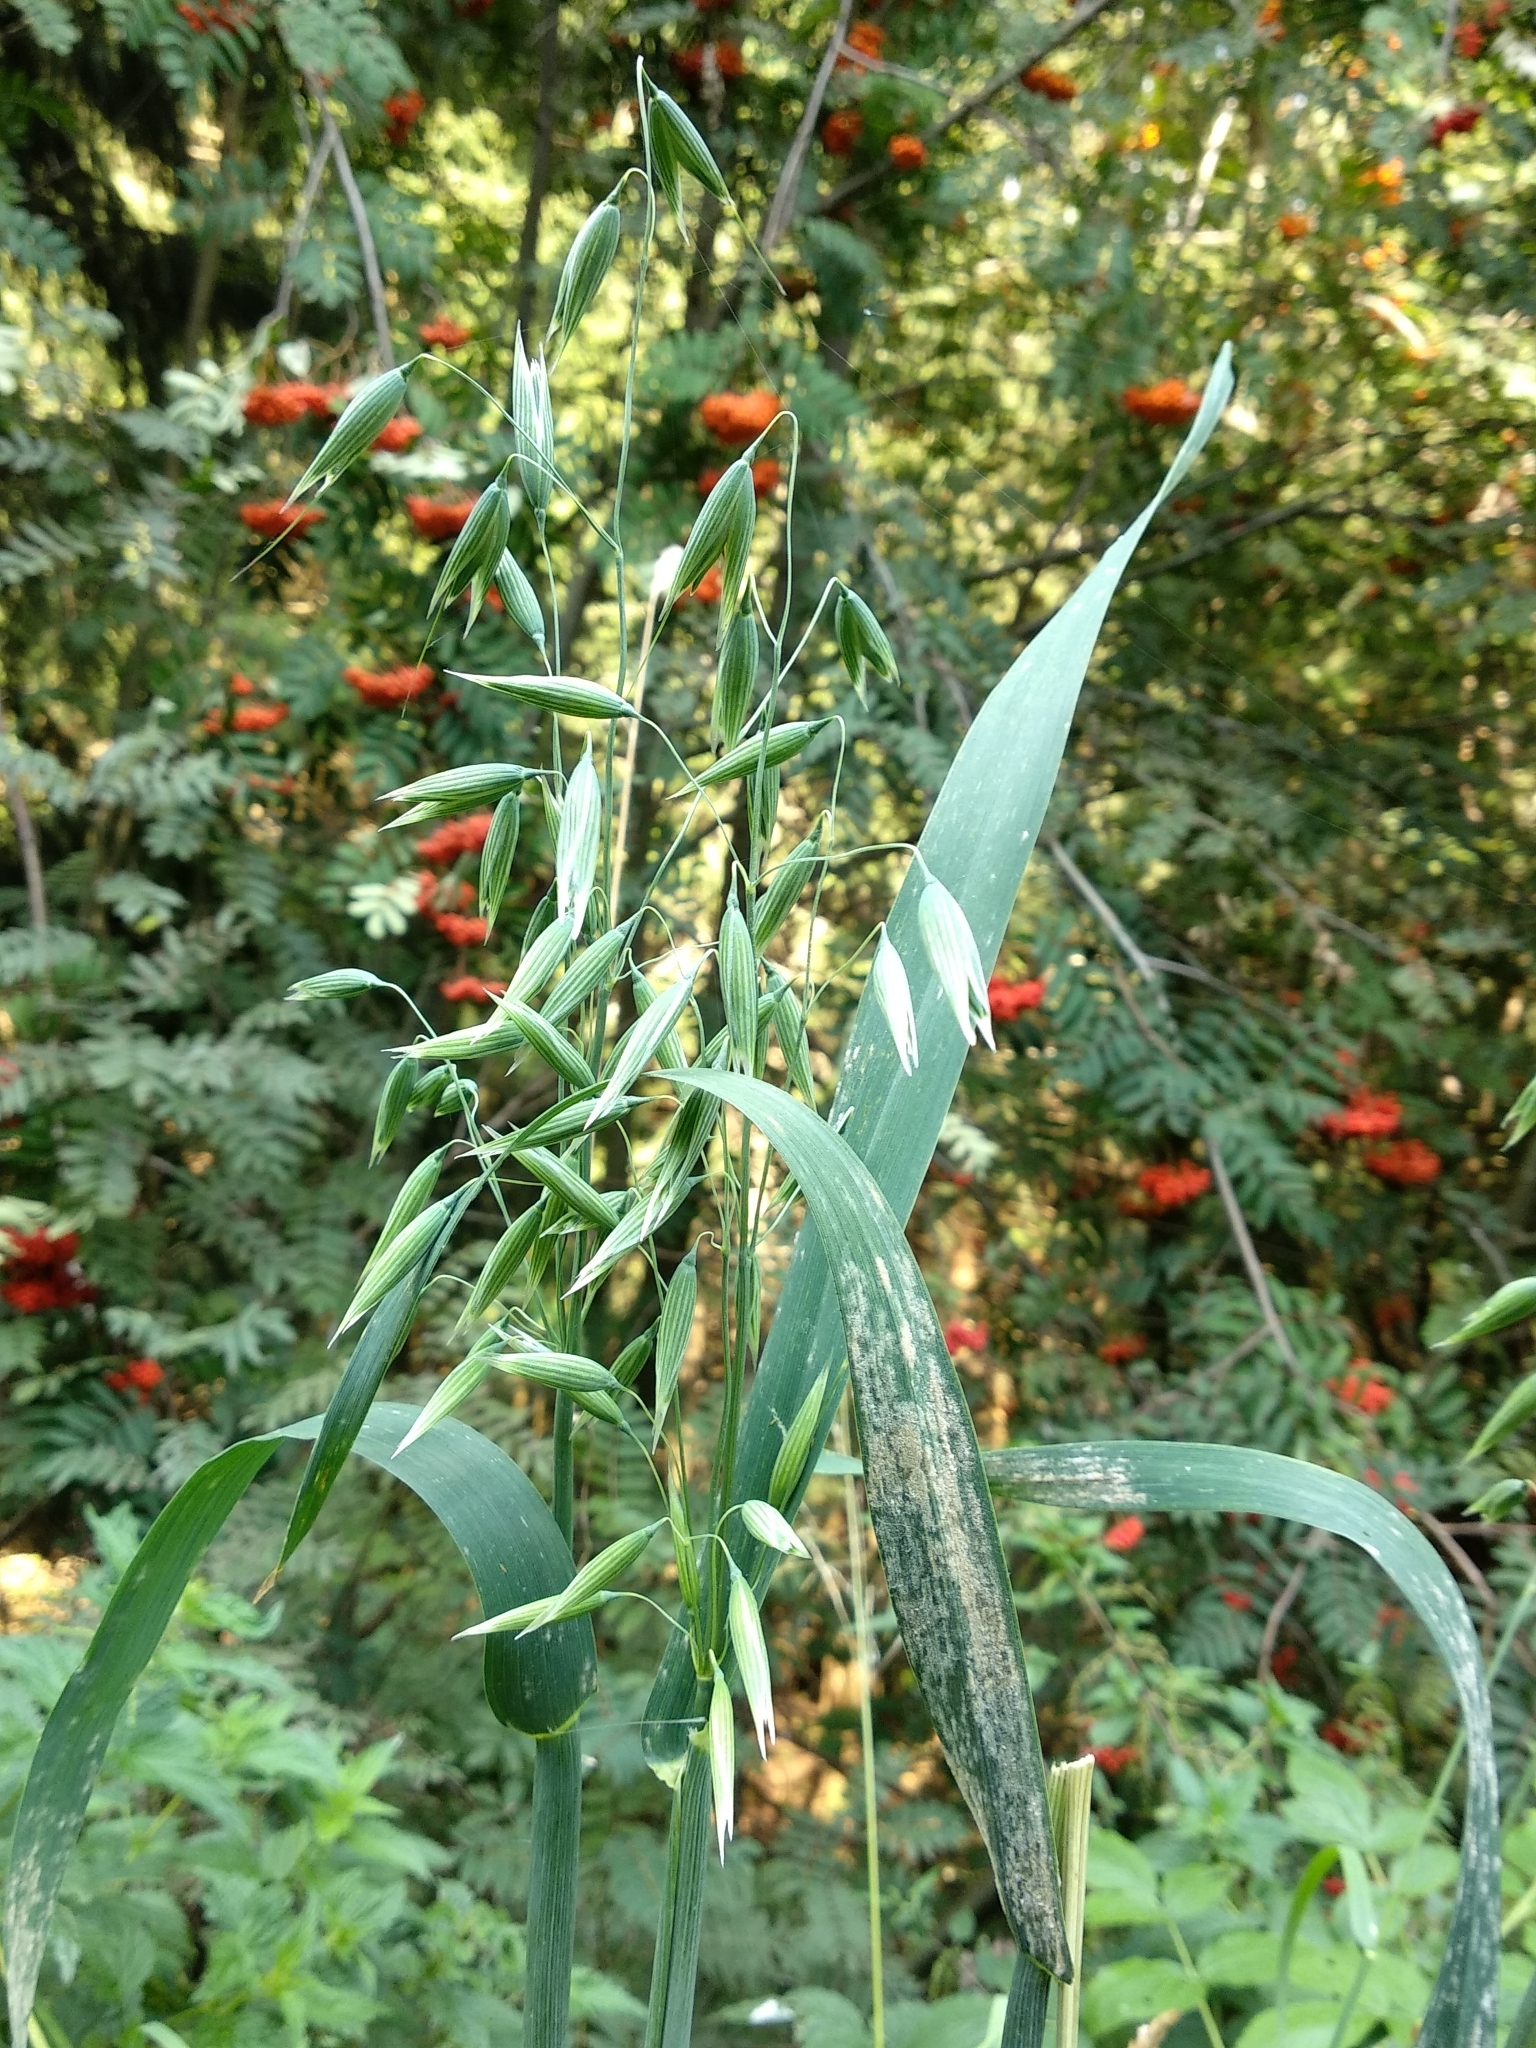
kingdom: Plantae
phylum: Tracheophyta
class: Liliopsida
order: Poales
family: Poaceae
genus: Avena
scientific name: Avena sativa
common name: Oat
